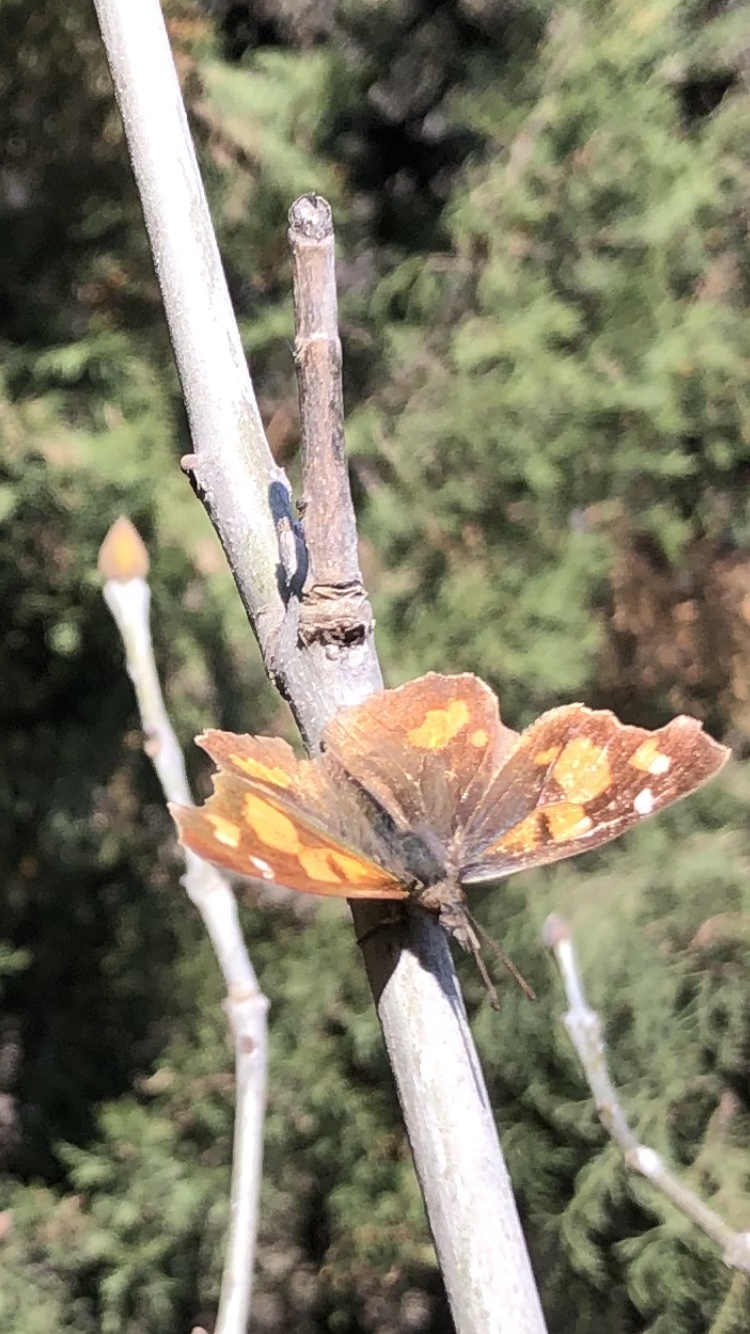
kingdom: Animalia
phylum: Arthropoda
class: Insecta
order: Lepidoptera
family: Nymphalidae
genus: Libythea
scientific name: Libythea celtis
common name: Nettle-tree butterfly
